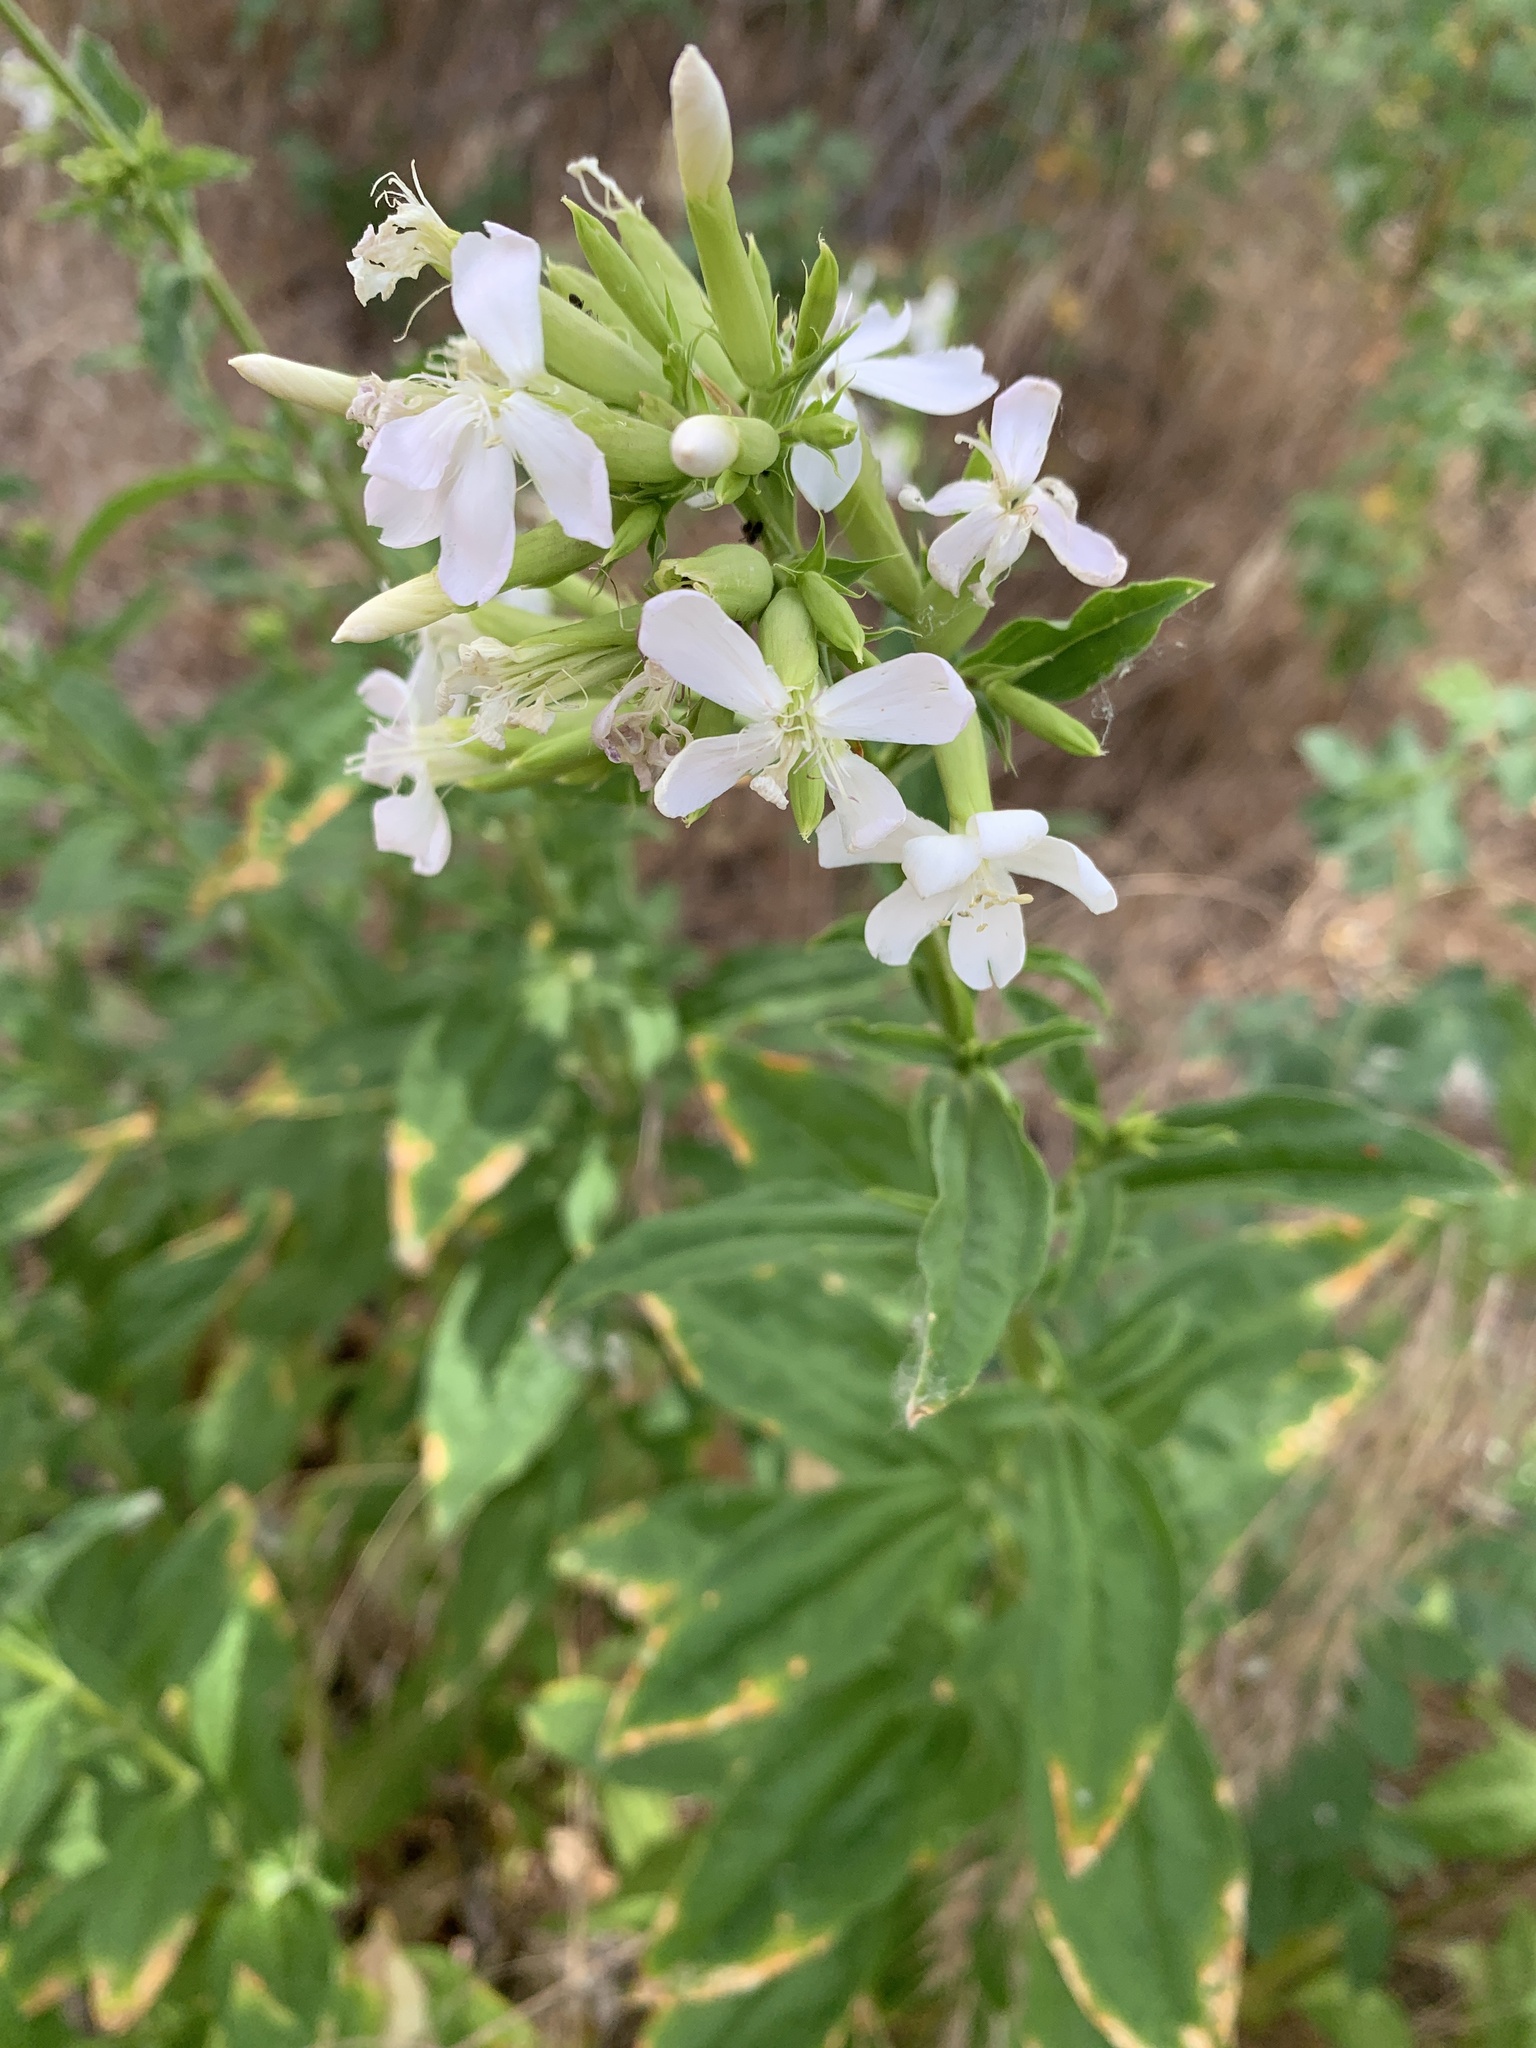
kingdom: Plantae
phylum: Tracheophyta
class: Magnoliopsida
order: Caryophyllales
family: Caryophyllaceae
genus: Saponaria
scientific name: Saponaria officinalis
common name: Soapwort
